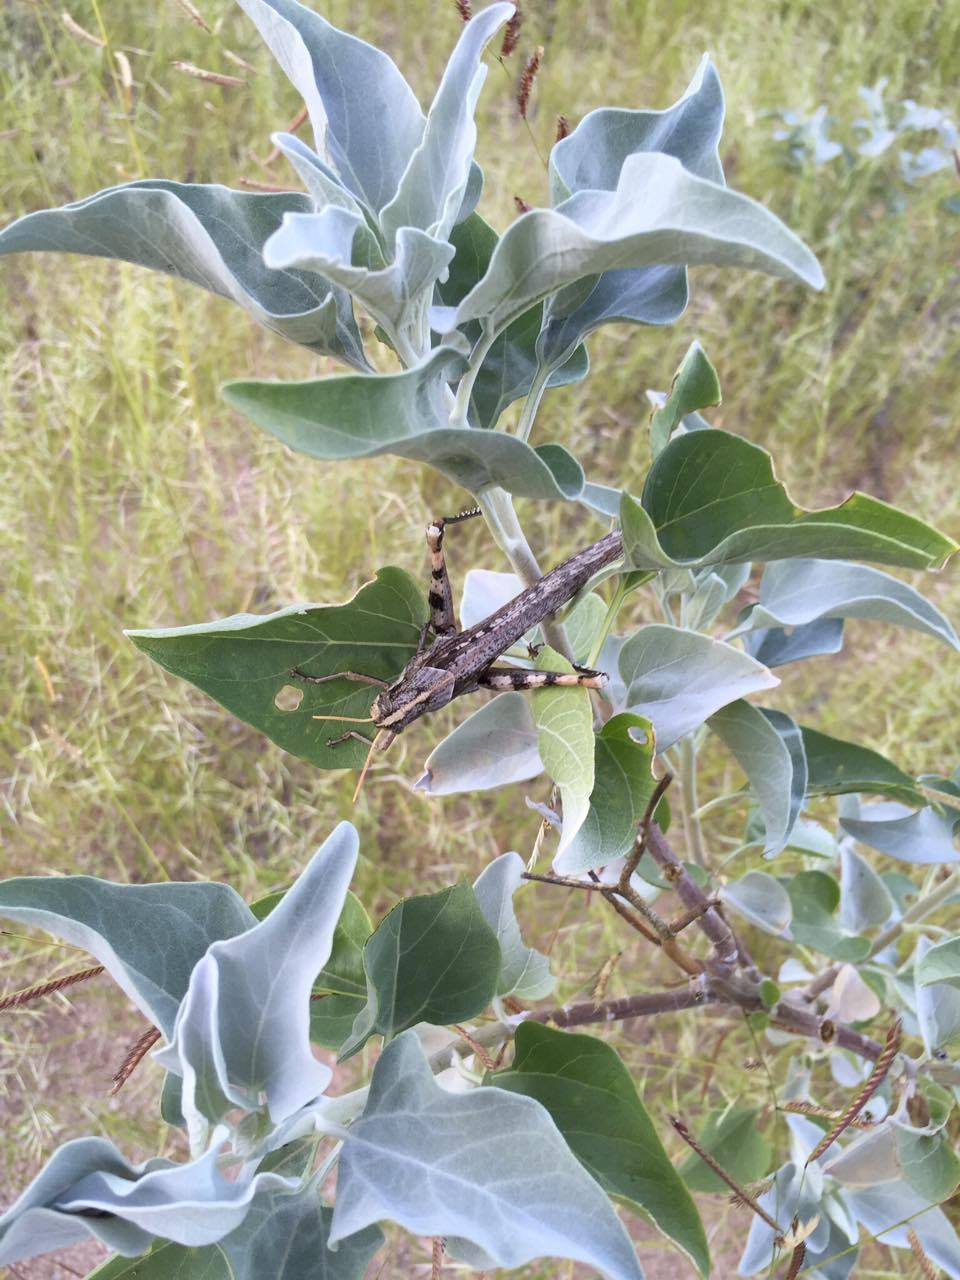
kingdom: Animalia
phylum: Arthropoda
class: Insecta
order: Orthoptera
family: Acrididae
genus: Schistocerca
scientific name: Schistocerca nitens
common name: Vagrant grasshopper
